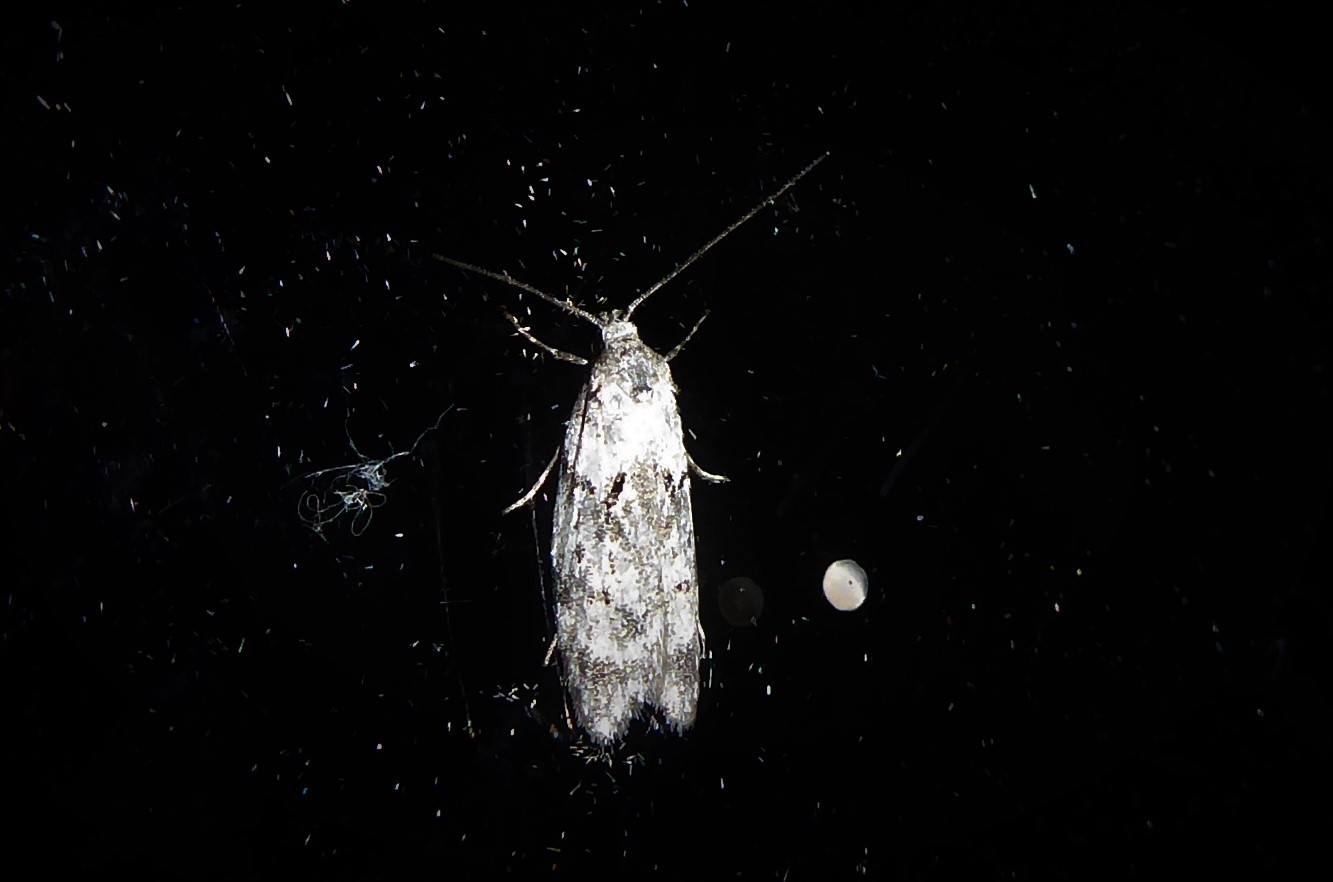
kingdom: Animalia
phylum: Arthropoda
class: Insecta
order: Lepidoptera
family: Oecophoridae
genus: Izatha
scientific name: Izatha convulsella
